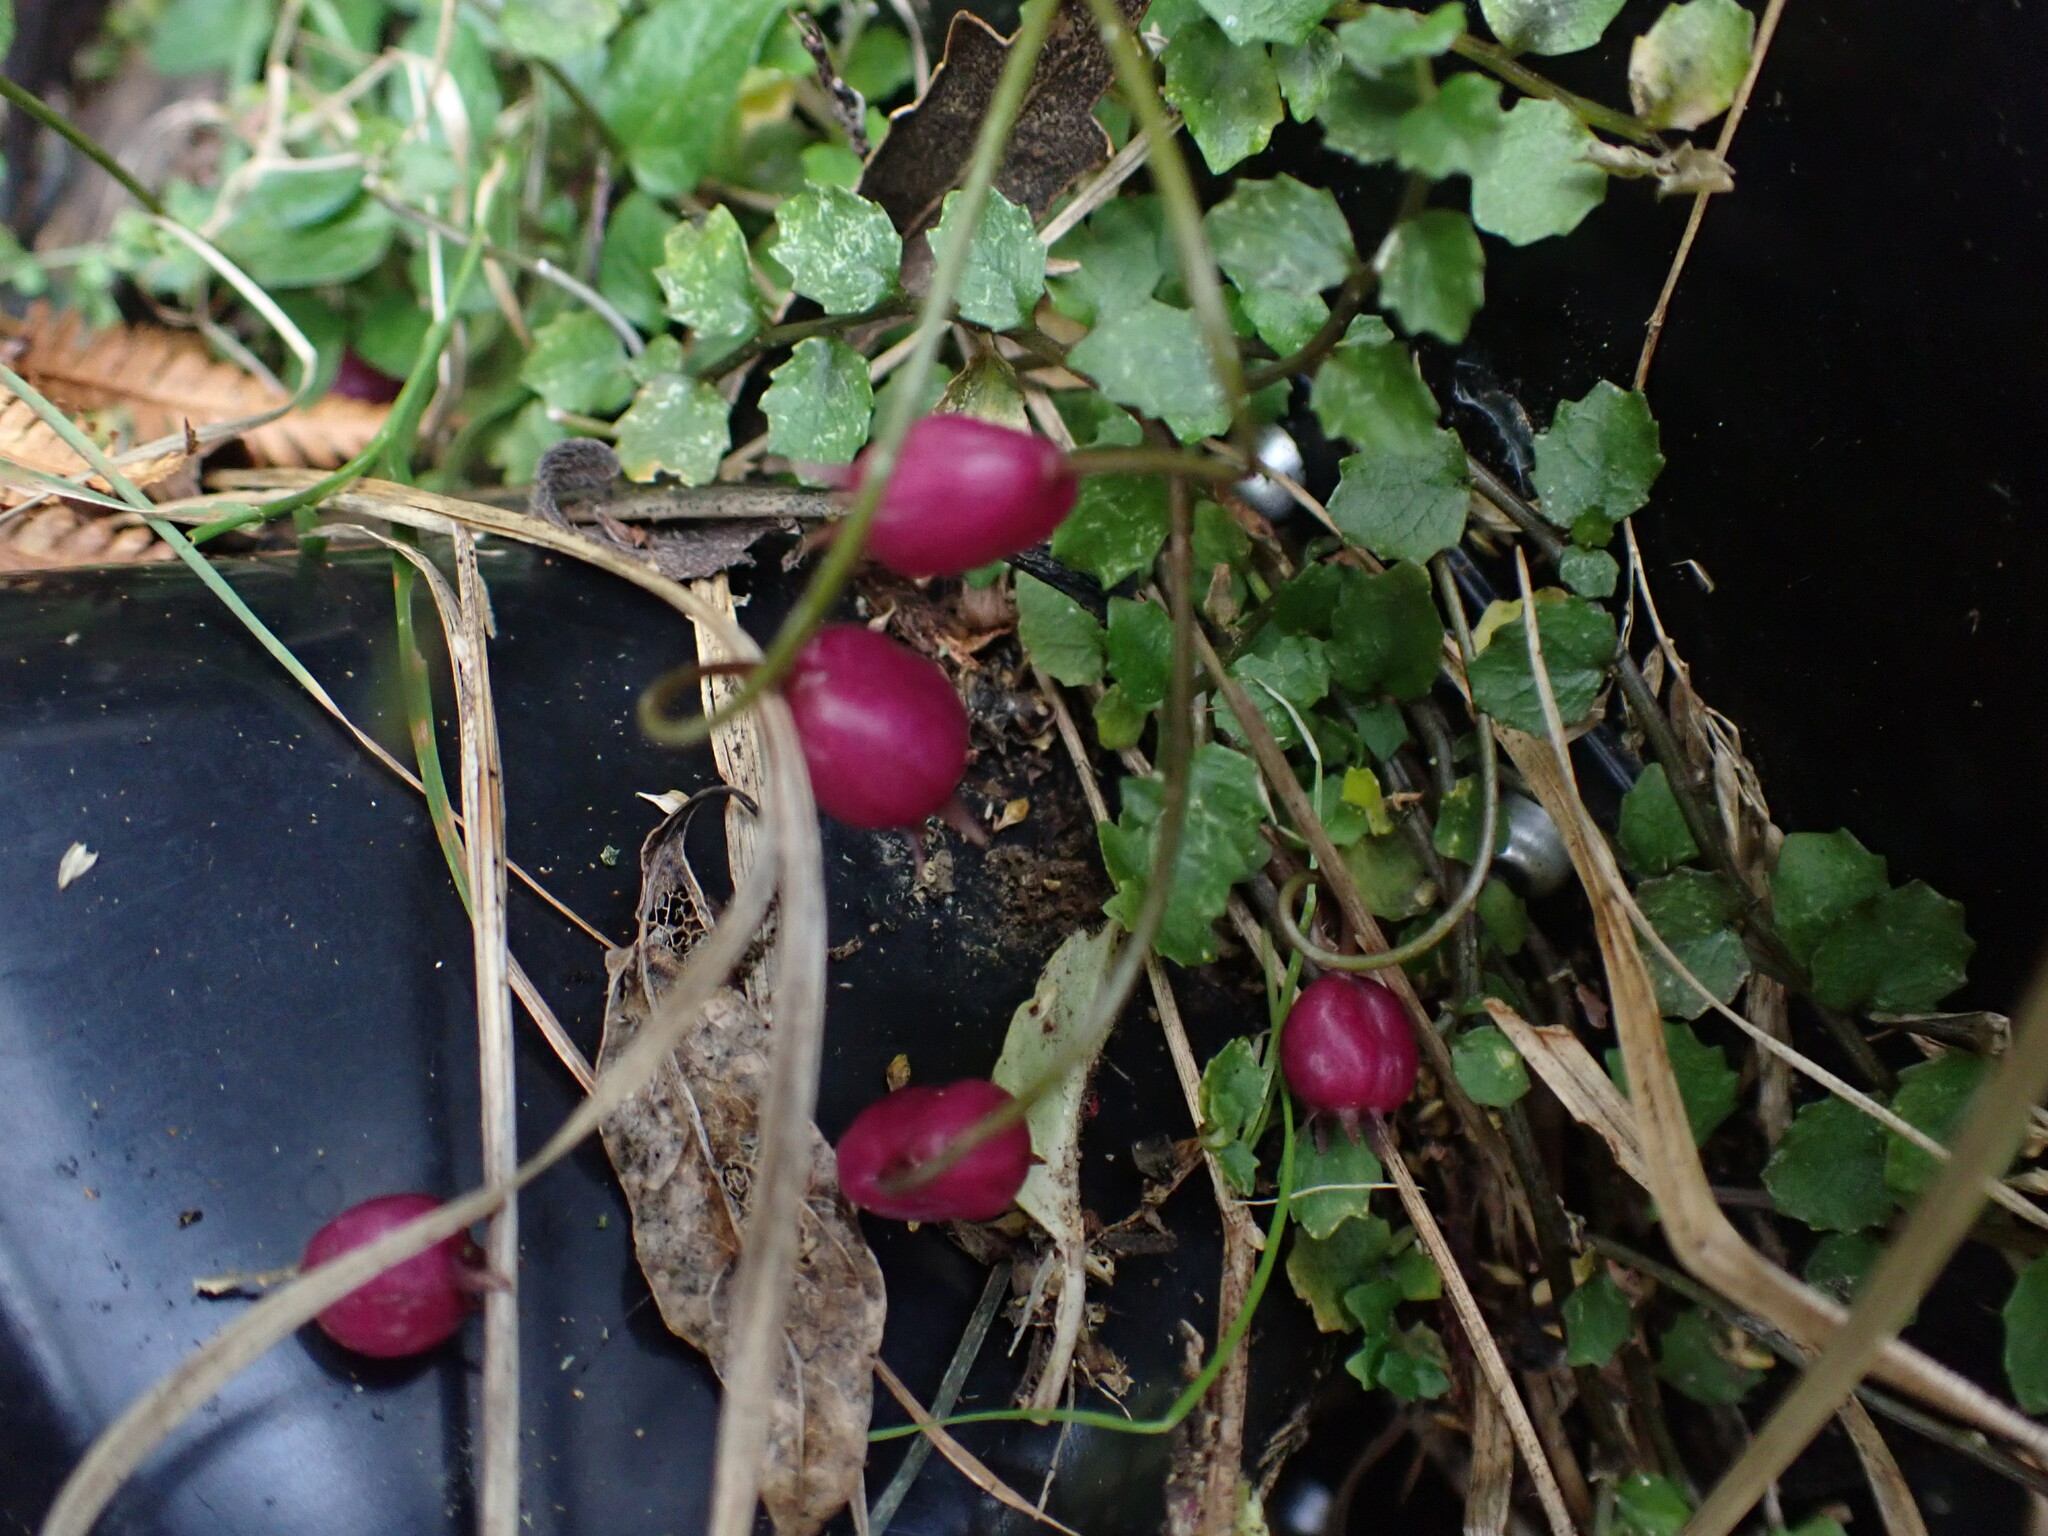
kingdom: Plantae
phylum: Tracheophyta
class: Magnoliopsida
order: Asterales
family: Campanulaceae
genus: Lobelia
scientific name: Lobelia angulata
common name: Lawn lobelia
